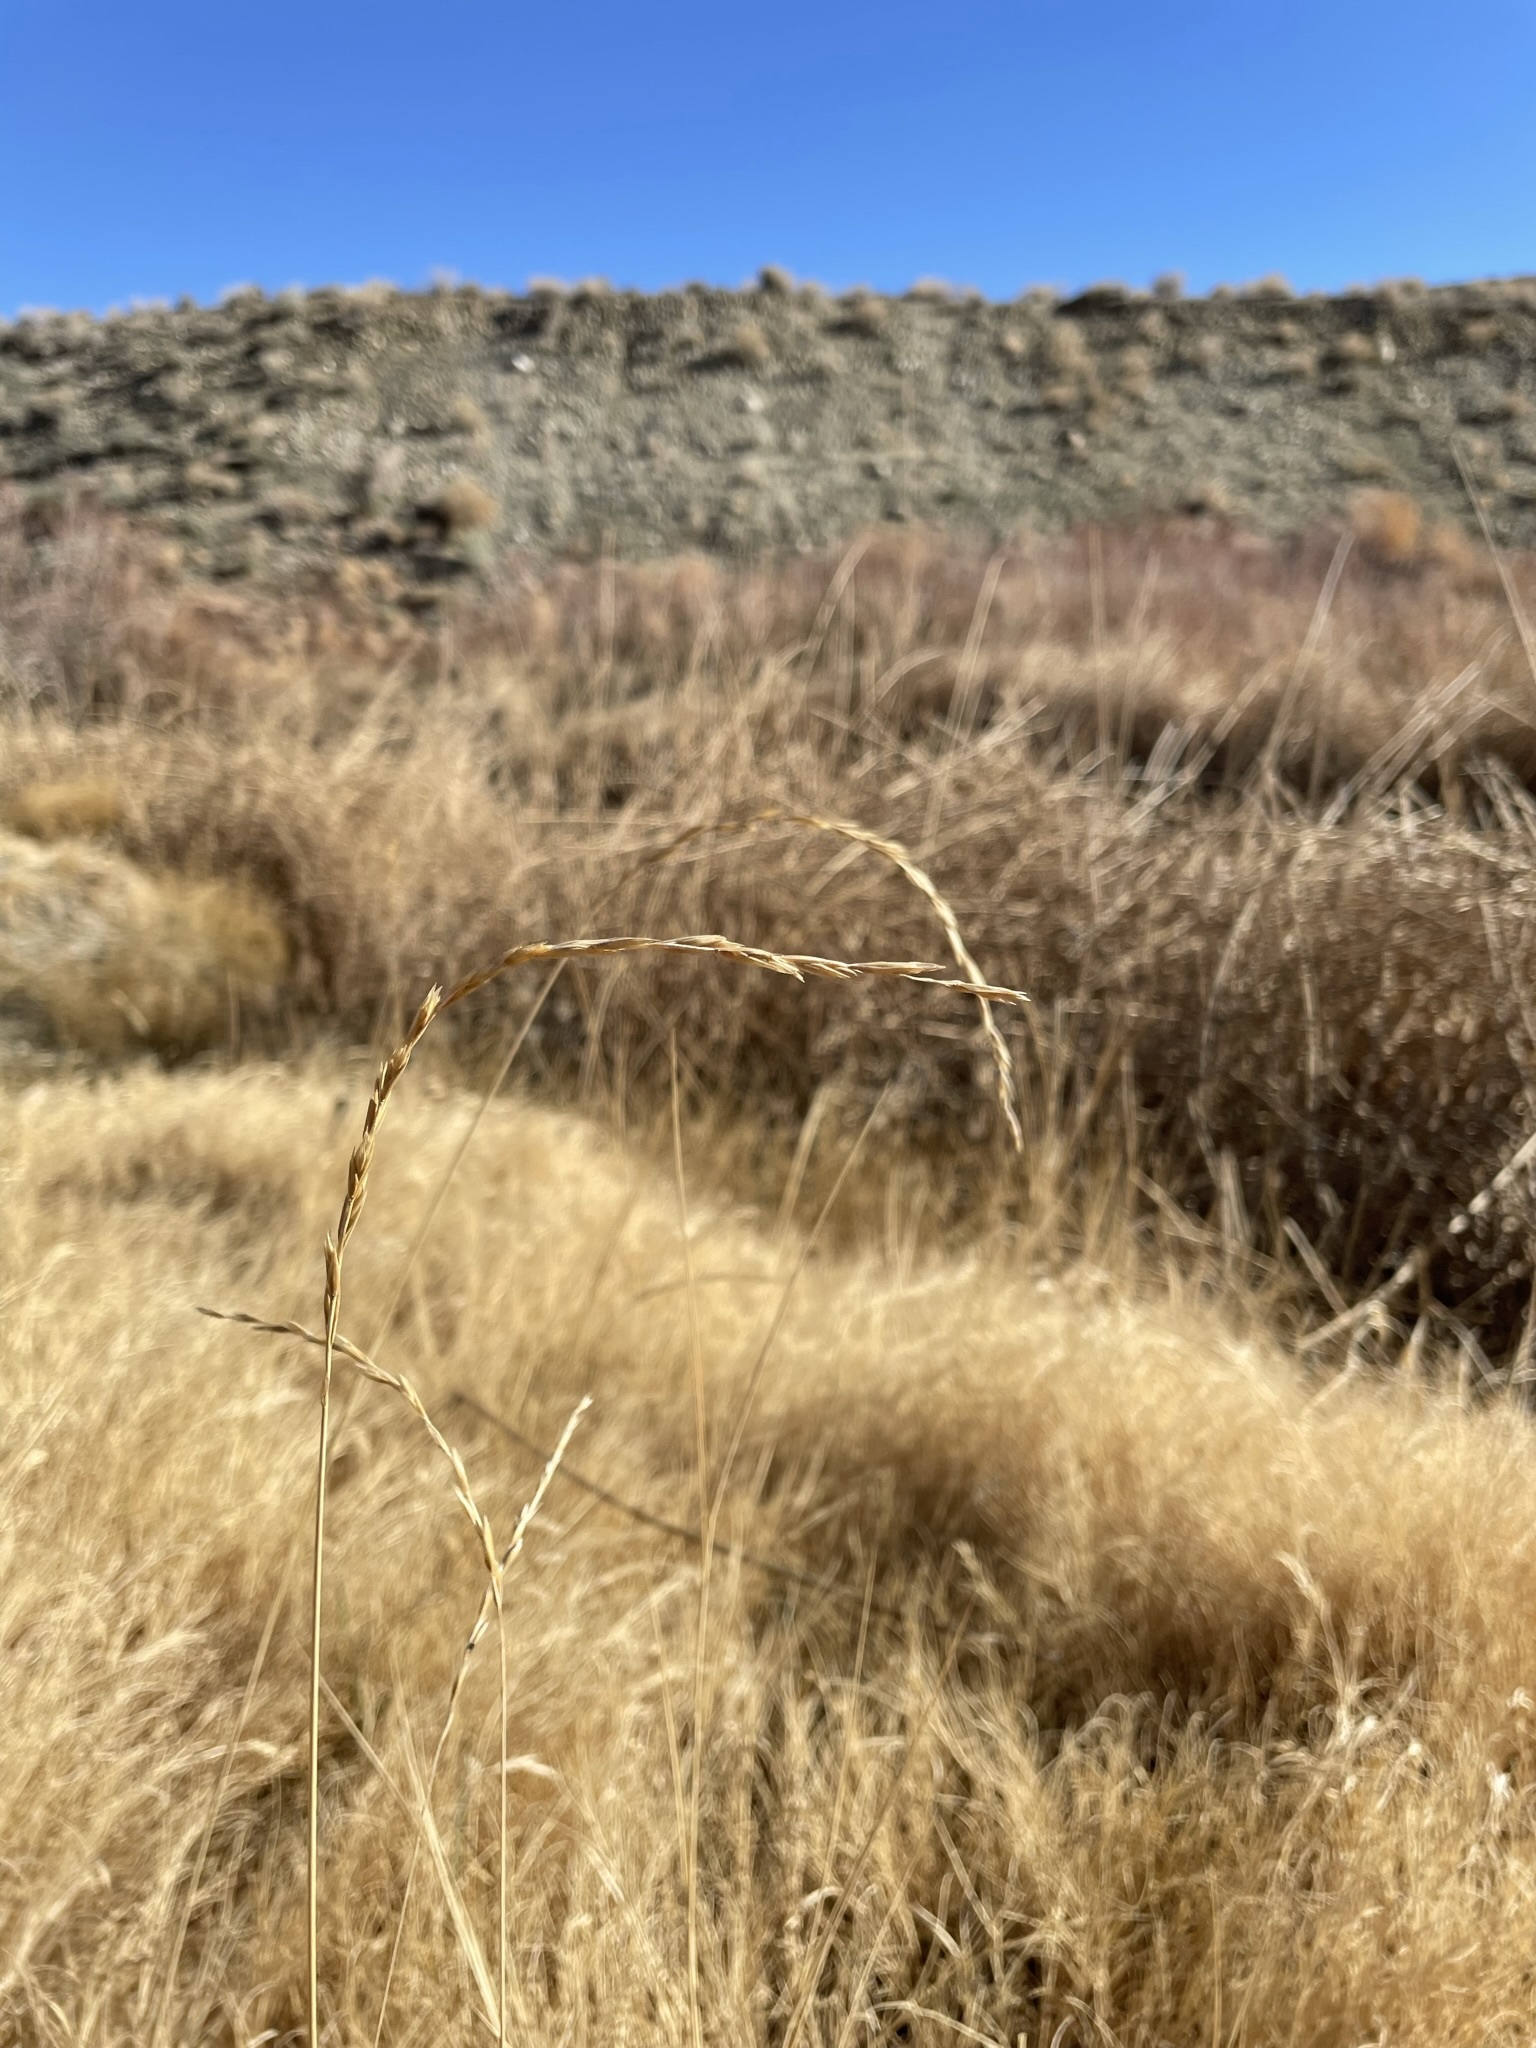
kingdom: Plantae
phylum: Tracheophyta
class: Liliopsida
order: Poales
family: Poaceae
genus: Leymus
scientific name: Leymus triticoides
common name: Beardless wild rye
